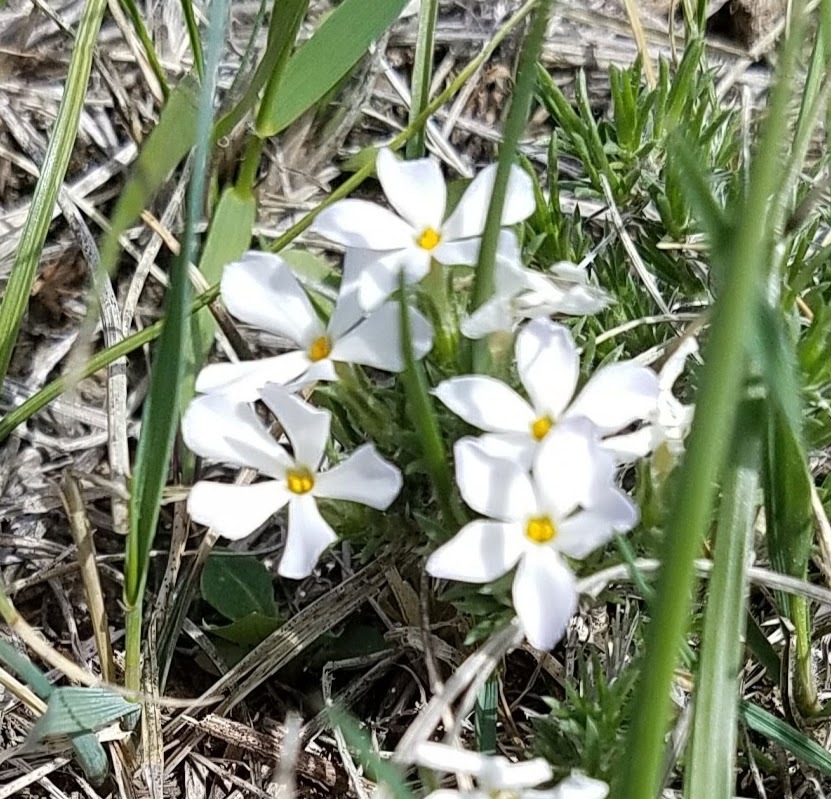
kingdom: Plantae
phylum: Tracheophyta
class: Magnoliopsida
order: Ericales
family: Polemoniaceae
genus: Phlox
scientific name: Phlox hoodii
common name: Moss phlox
